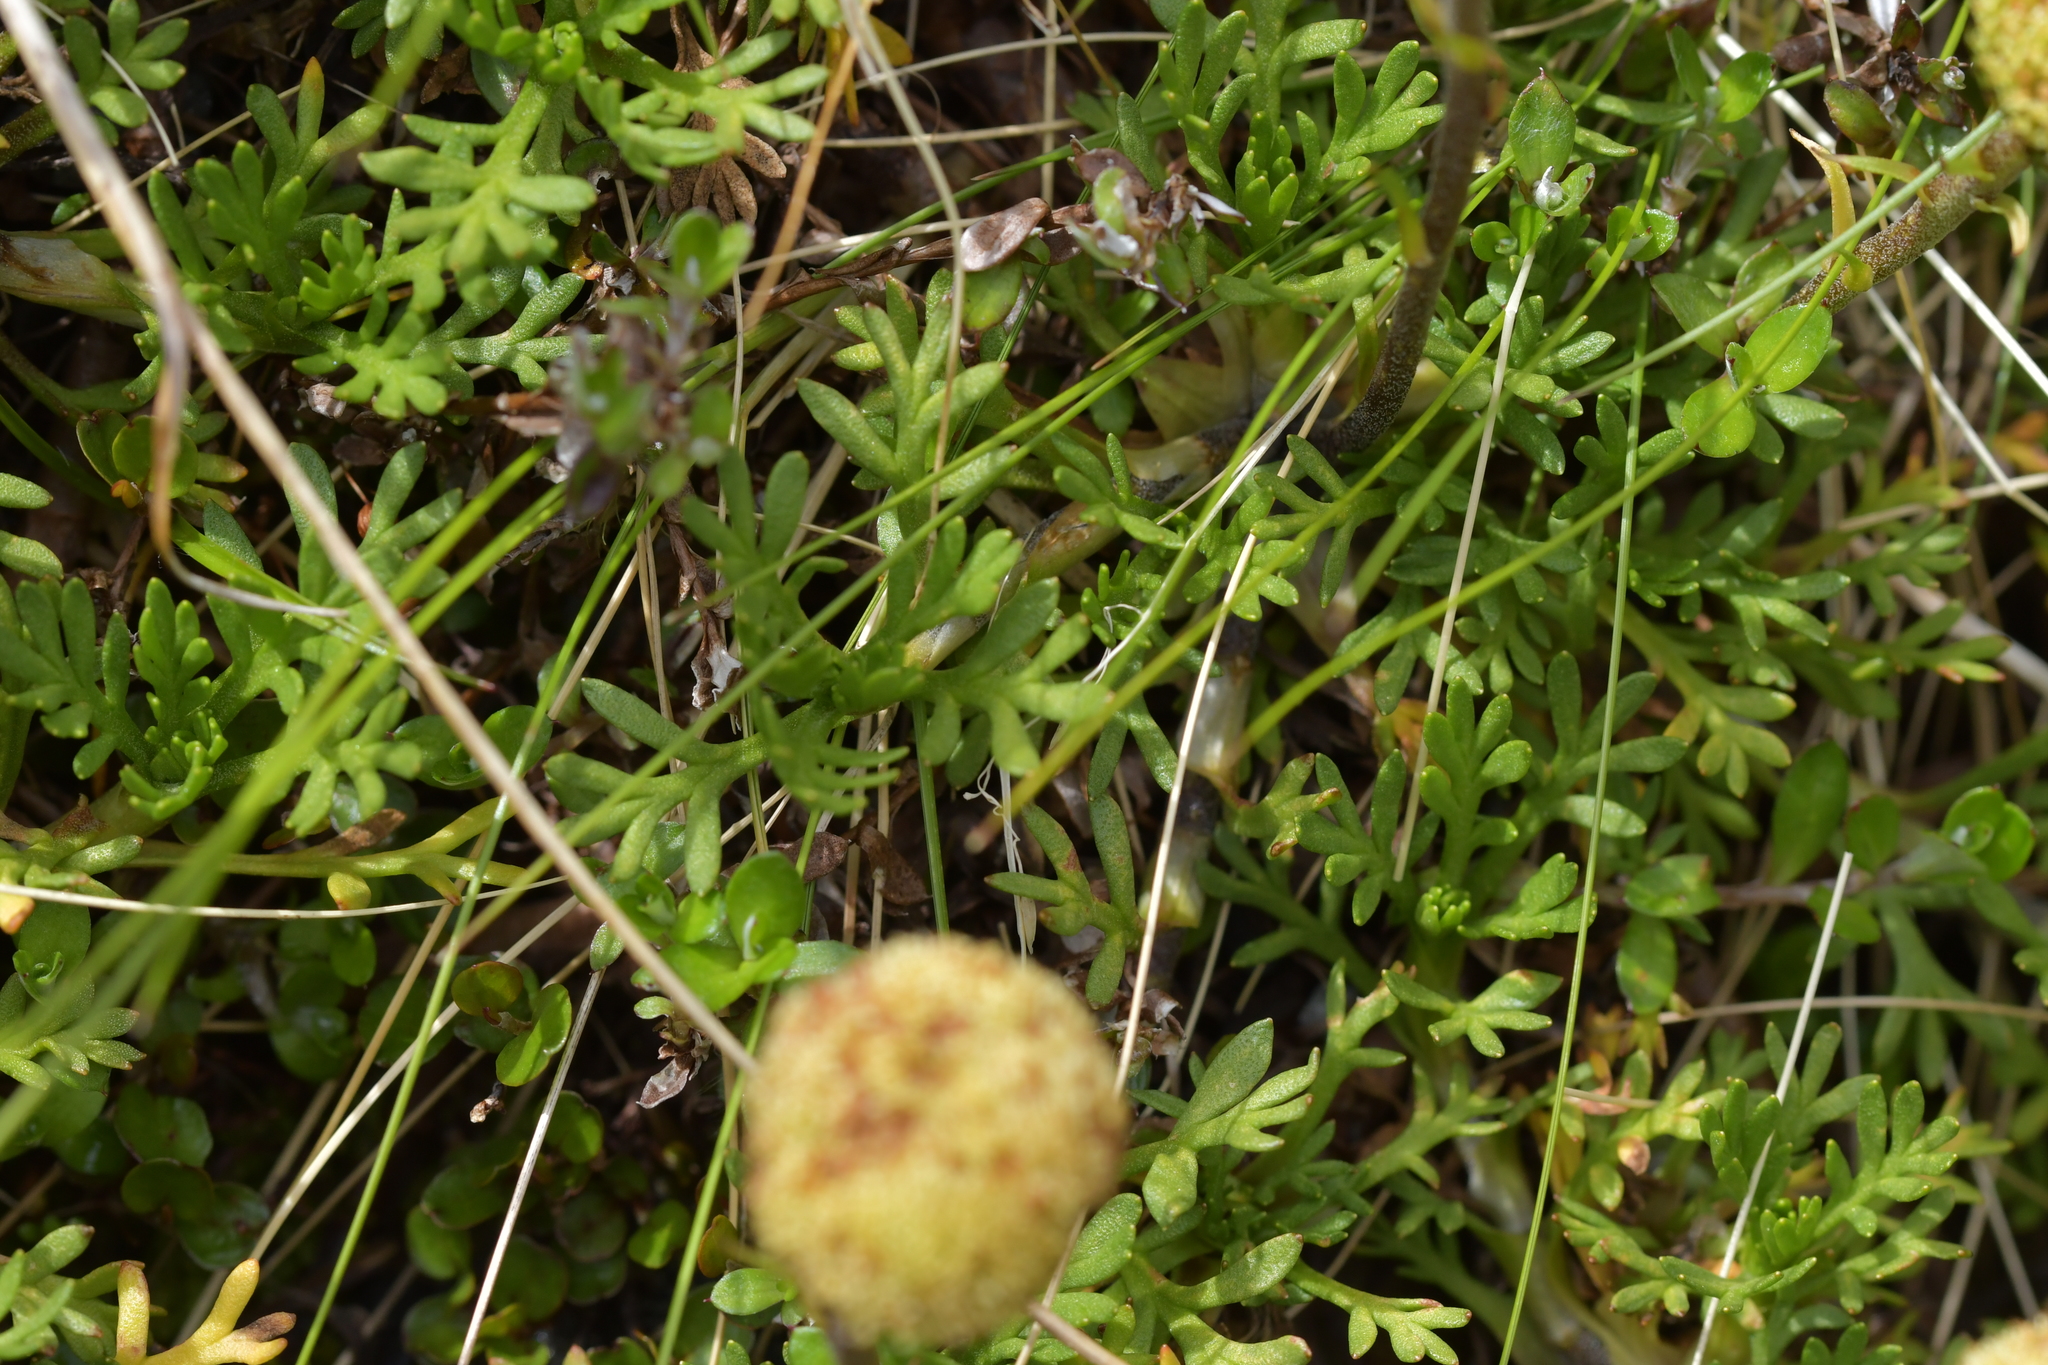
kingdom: Plantae
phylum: Tracheophyta
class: Magnoliopsida
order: Asterales
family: Asteraceae
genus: Leptinella
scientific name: Leptinella pyrethrifolia
